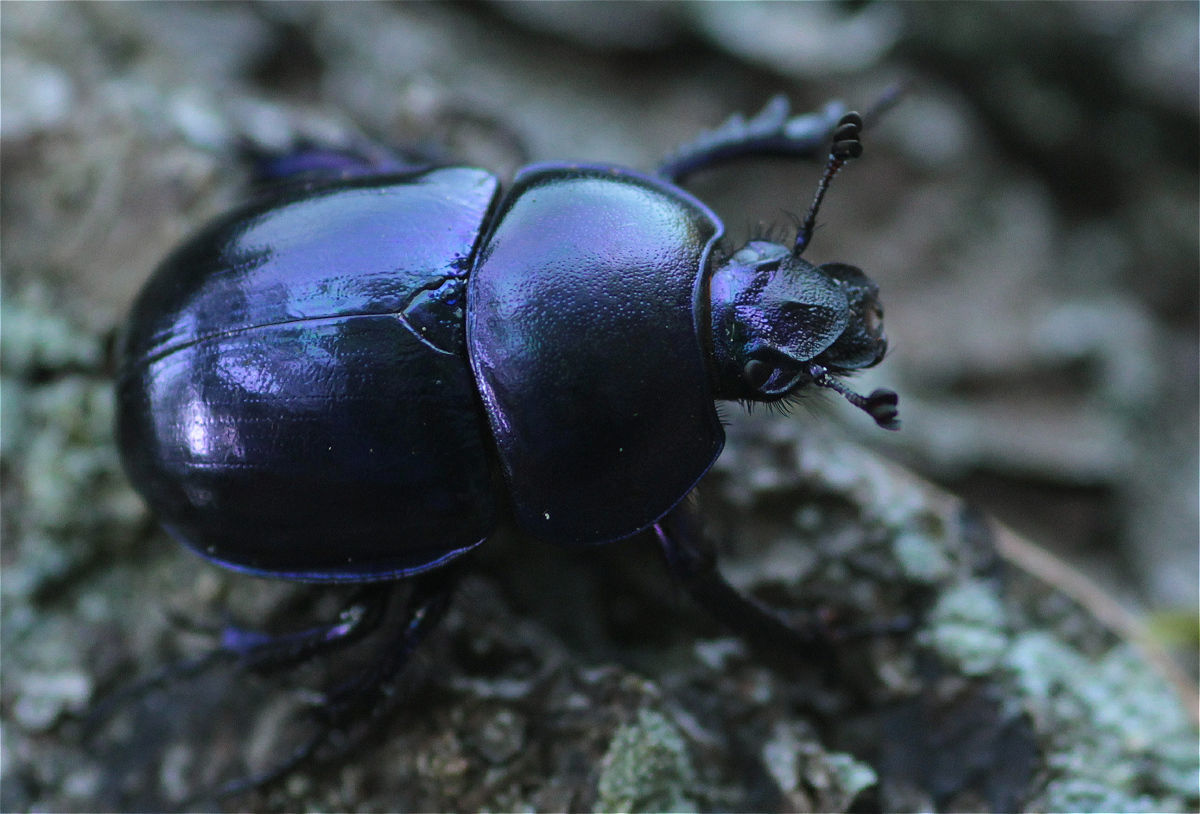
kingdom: Animalia
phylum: Arthropoda
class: Insecta
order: Coleoptera
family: Geotrupidae
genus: Trypocopris
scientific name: Trypocopris vernalis
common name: Spring dumbledor
